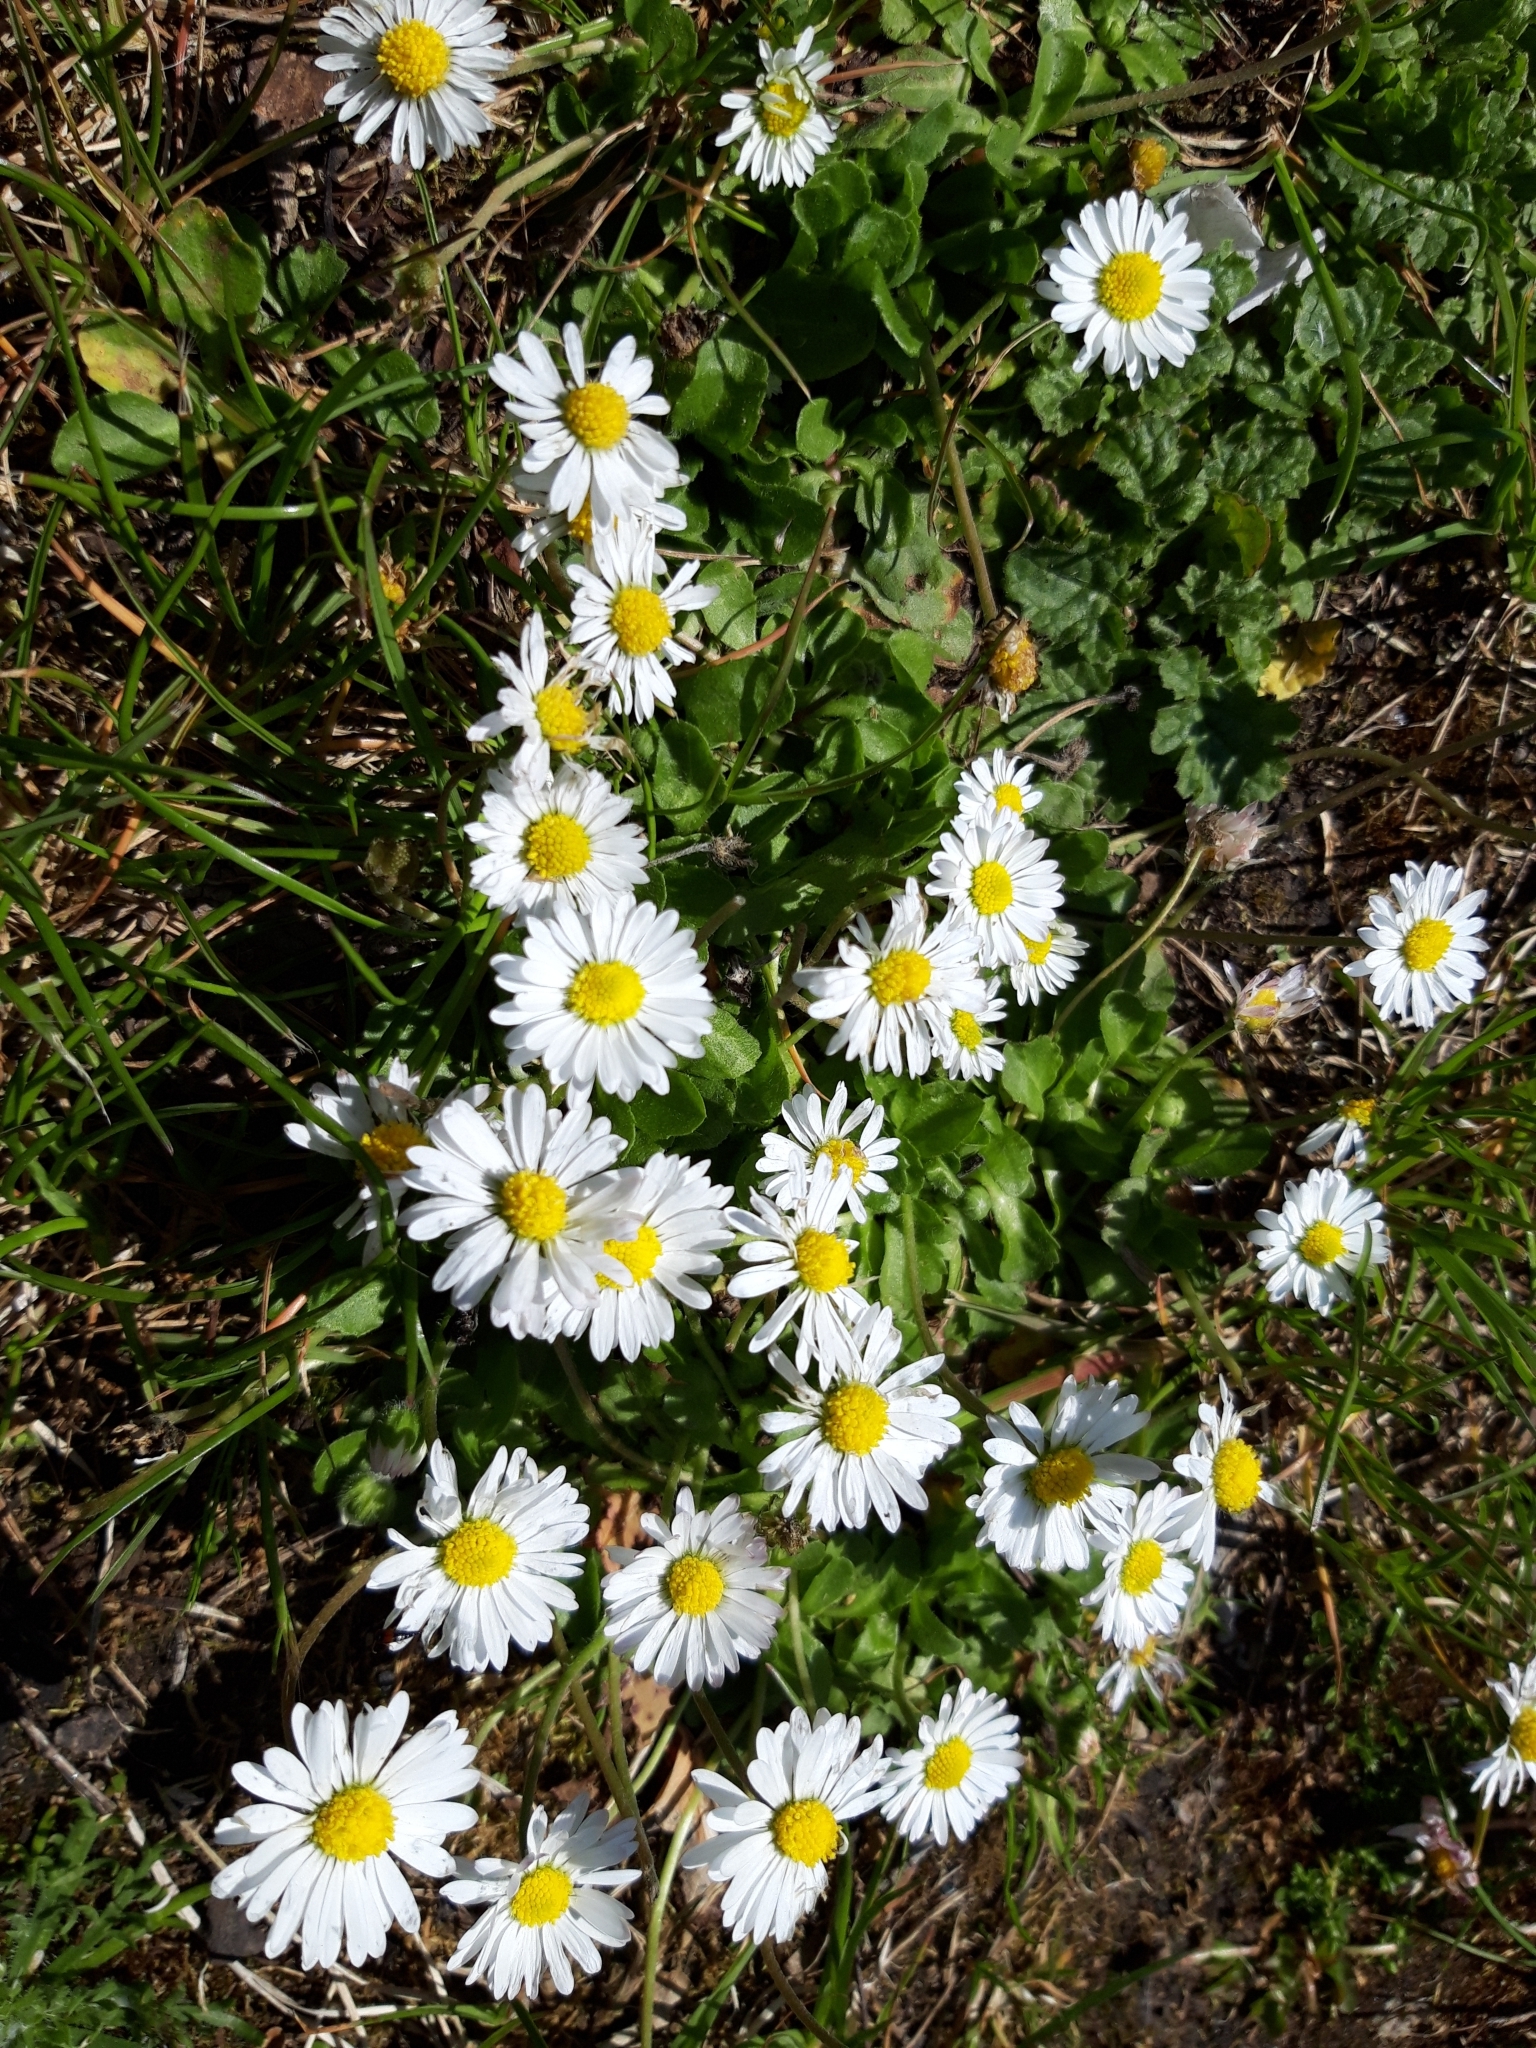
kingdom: Plantae
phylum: Tracheophyta
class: Magnoliopsida
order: Asterales
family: Asteraceae
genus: Bellis
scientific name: Bellis perennis
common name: Lawndaisy
